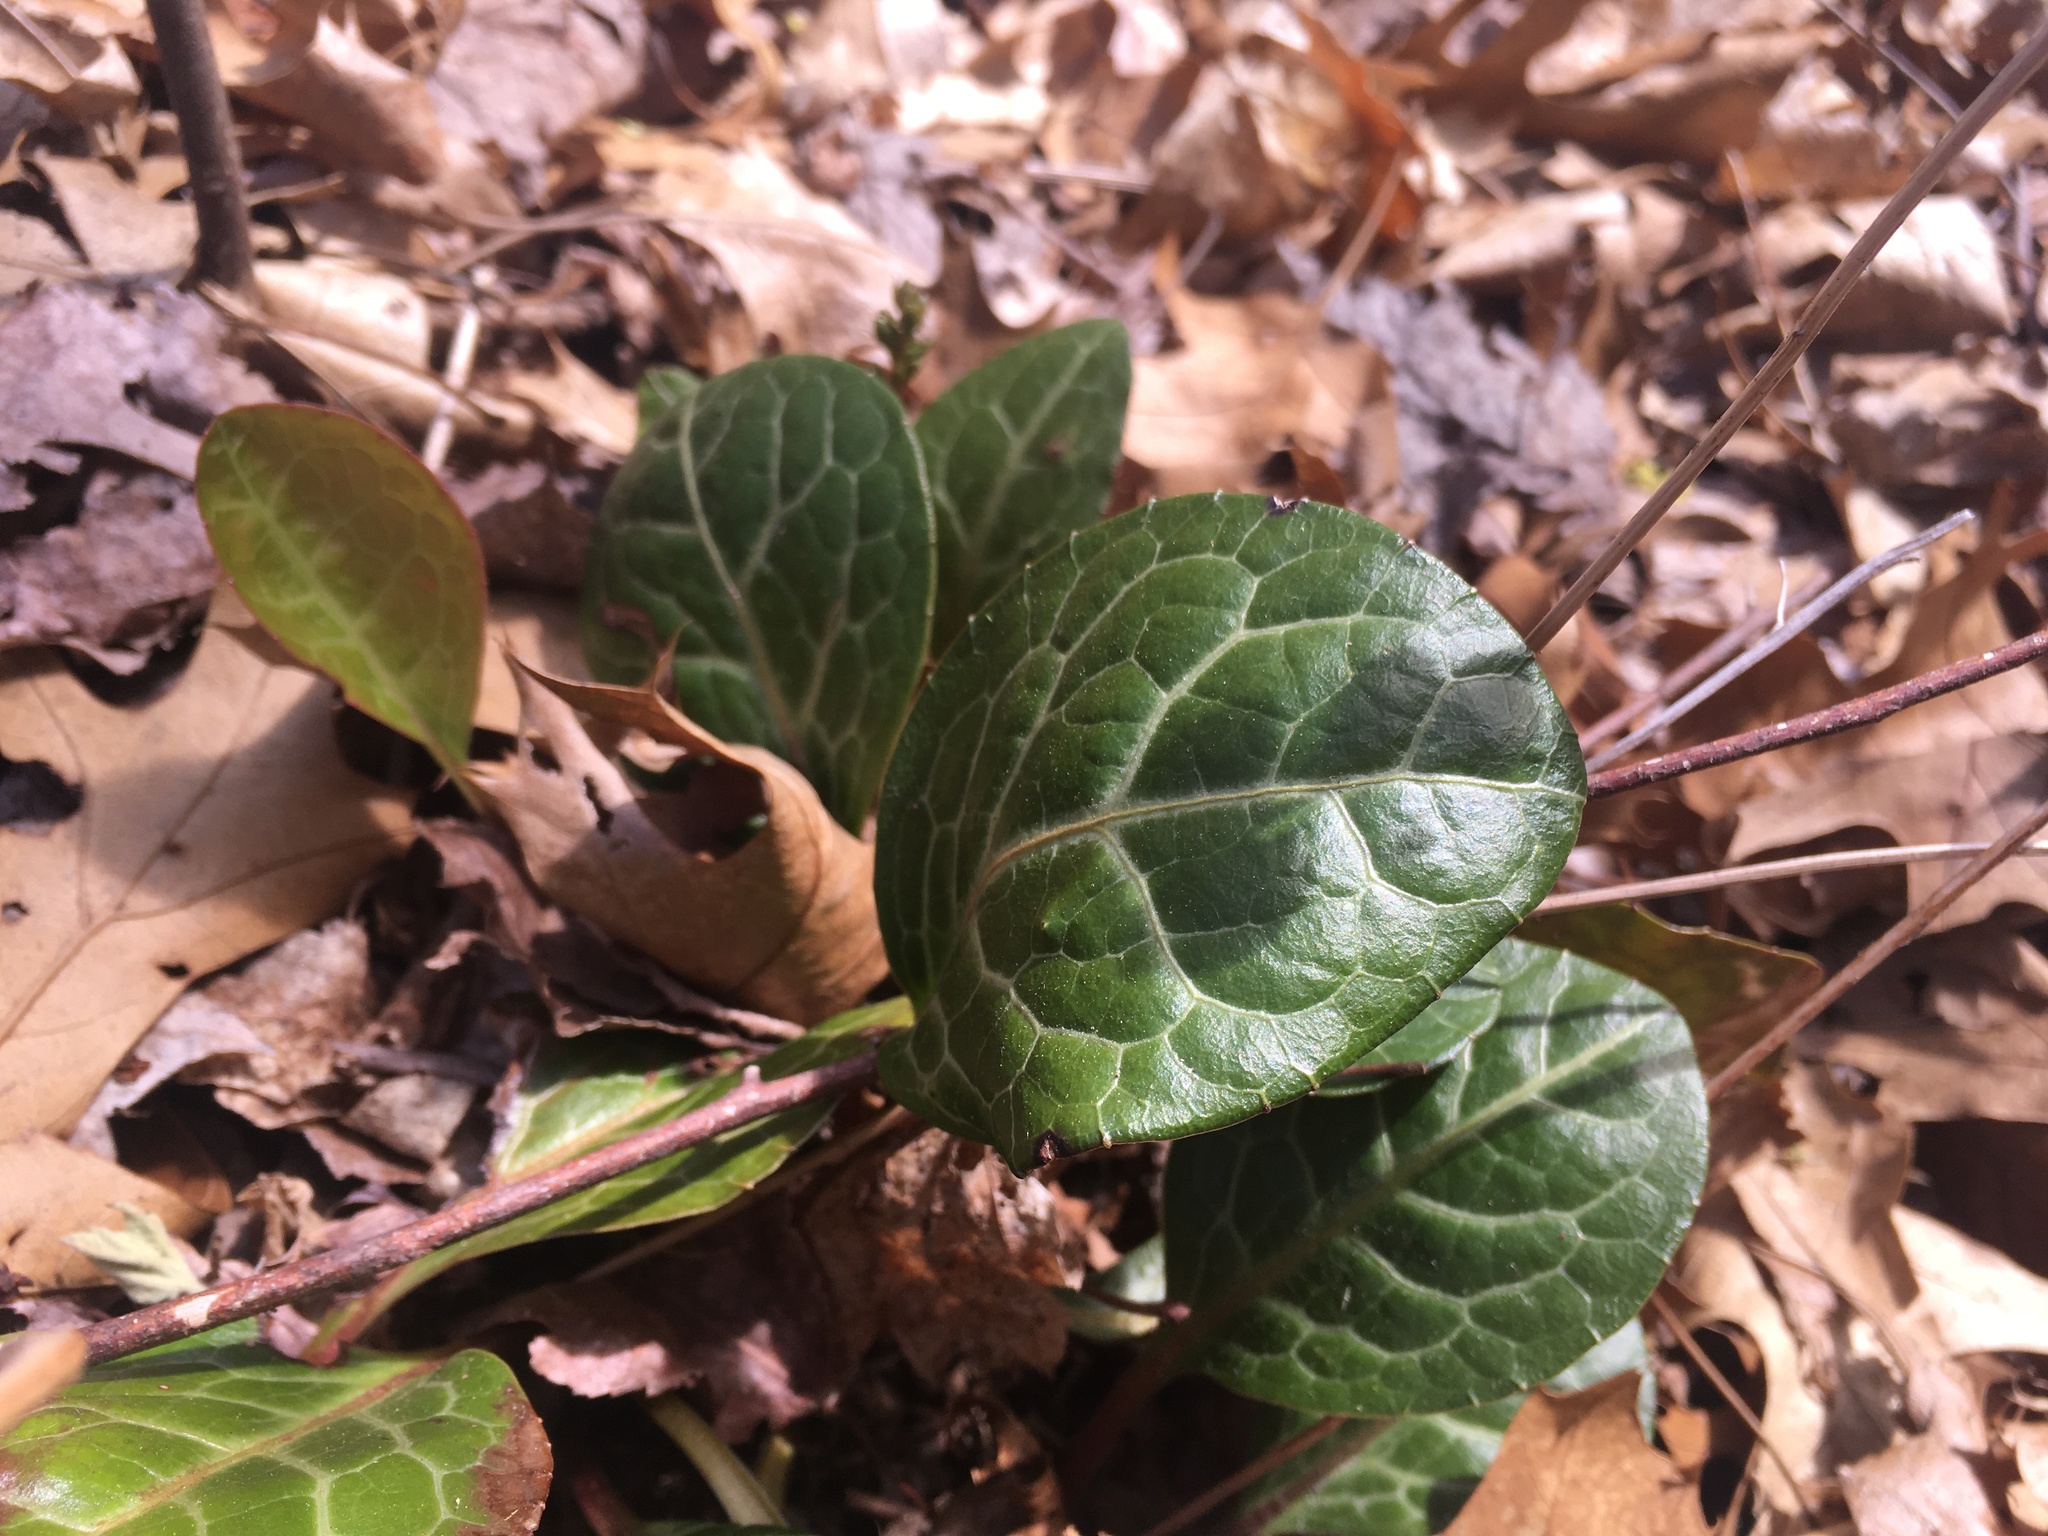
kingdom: Plantae
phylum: Tracheophyta
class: Magnoliopsida
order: Ericales
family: Ericaceae
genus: Pyrola
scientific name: Pyrola americana
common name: American wintergreen
